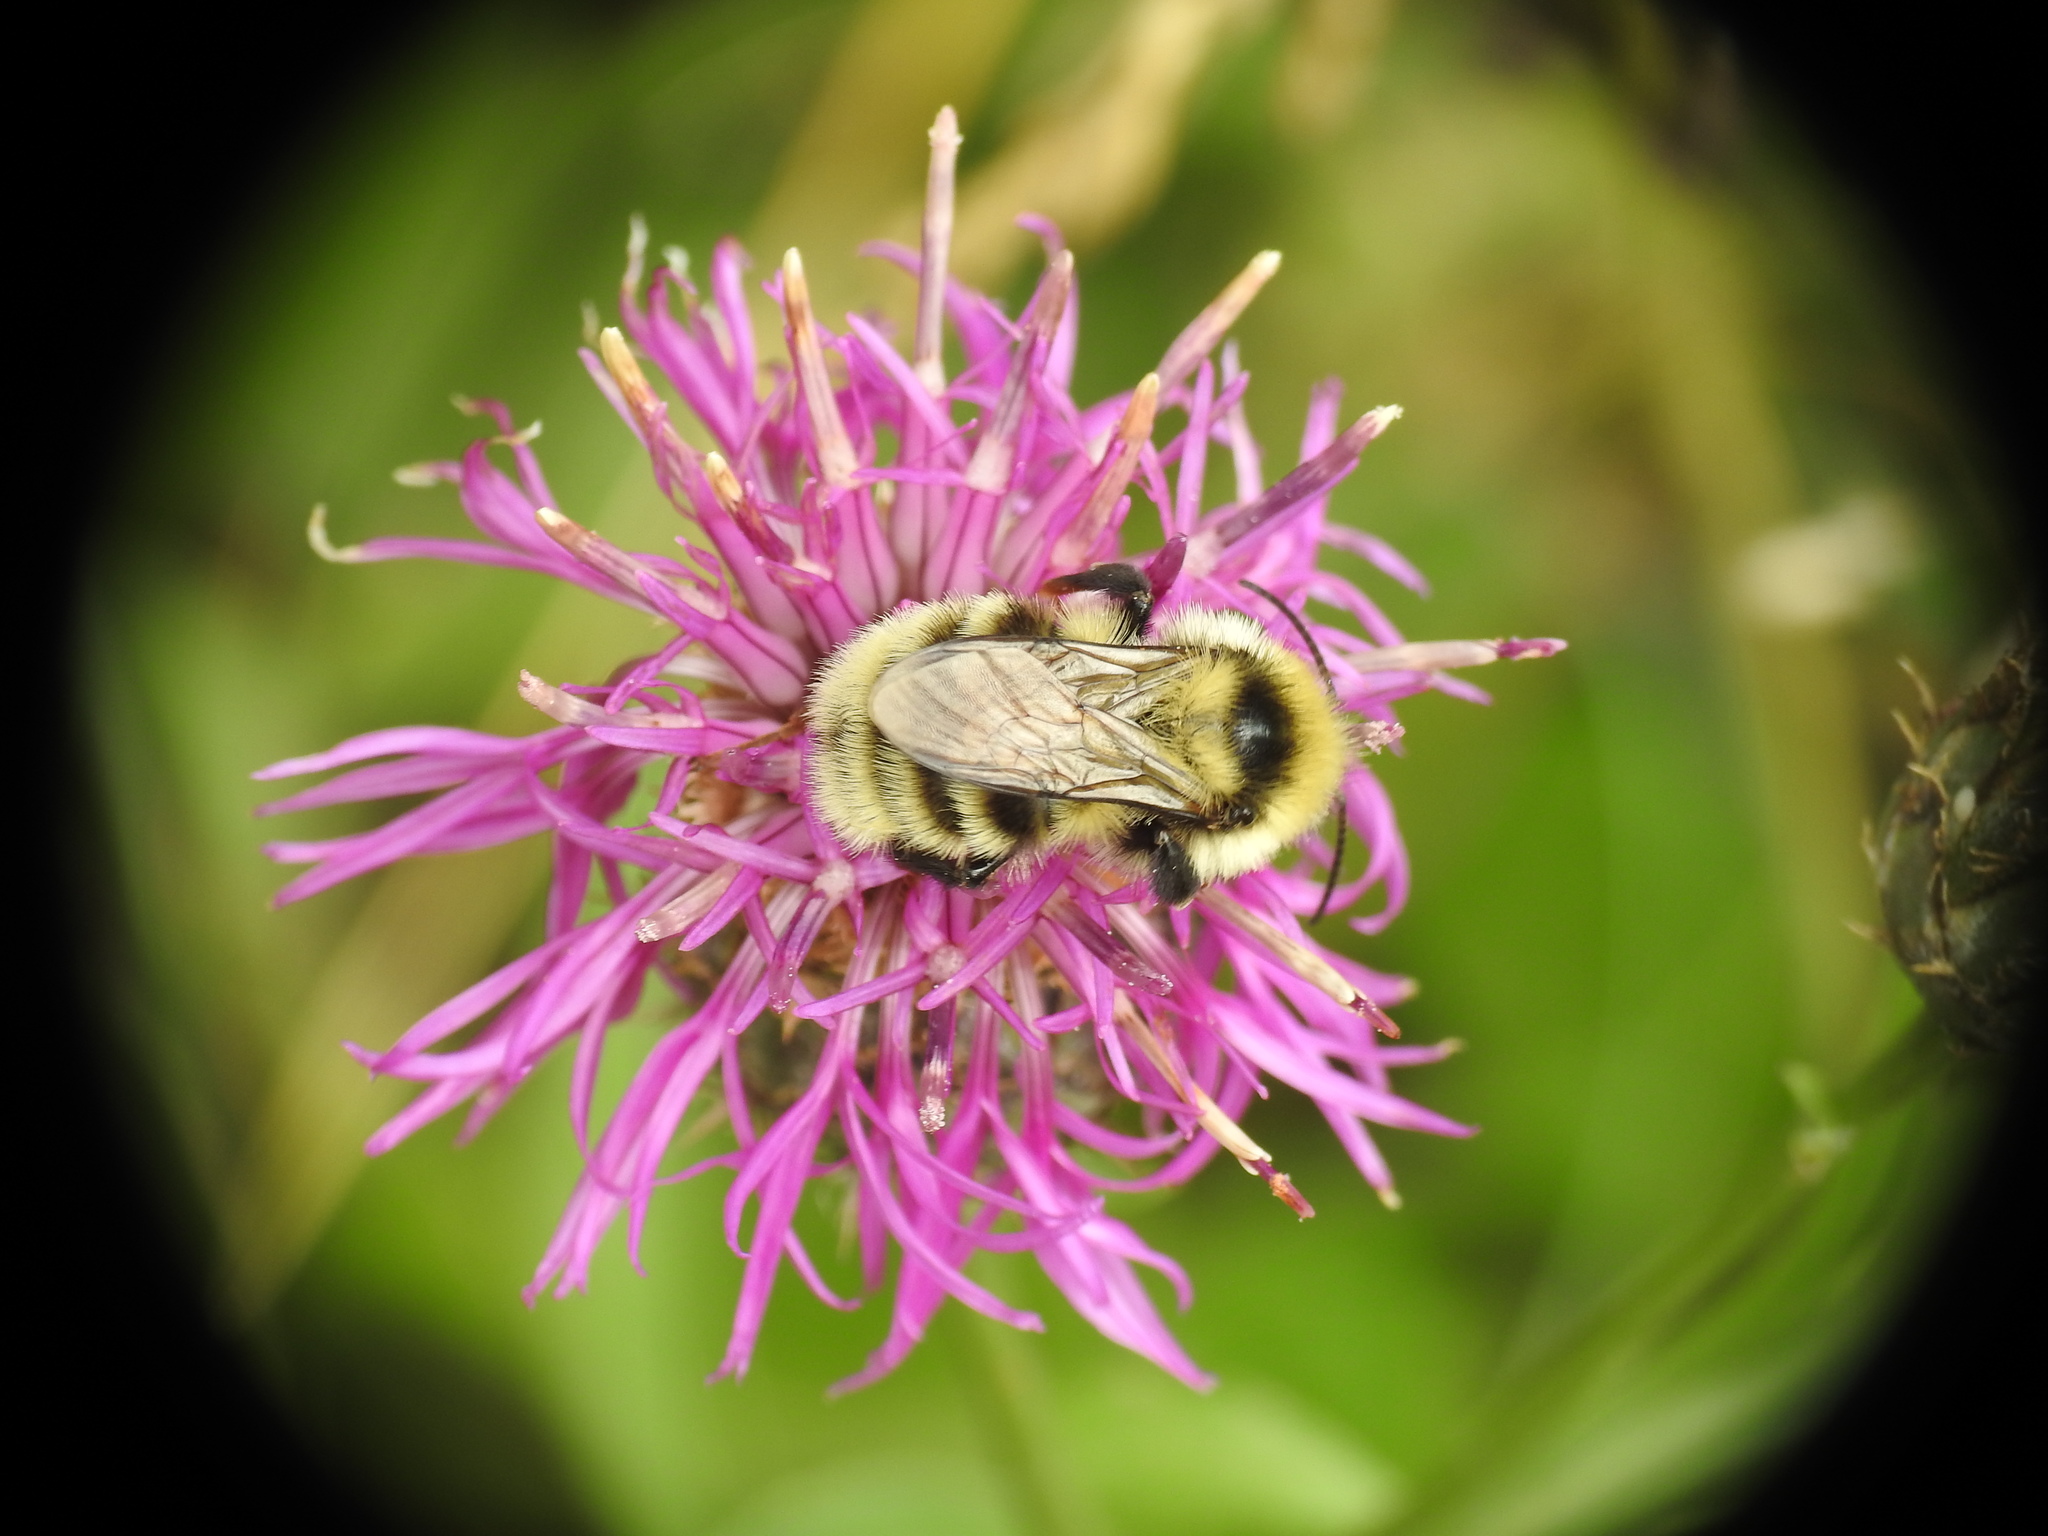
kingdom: Animalia
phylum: Arthropoda
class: Insecta
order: Hymenoptera
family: Apidae
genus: Bombus
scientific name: Bombus subterraneus
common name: Short-haired humble-bee
